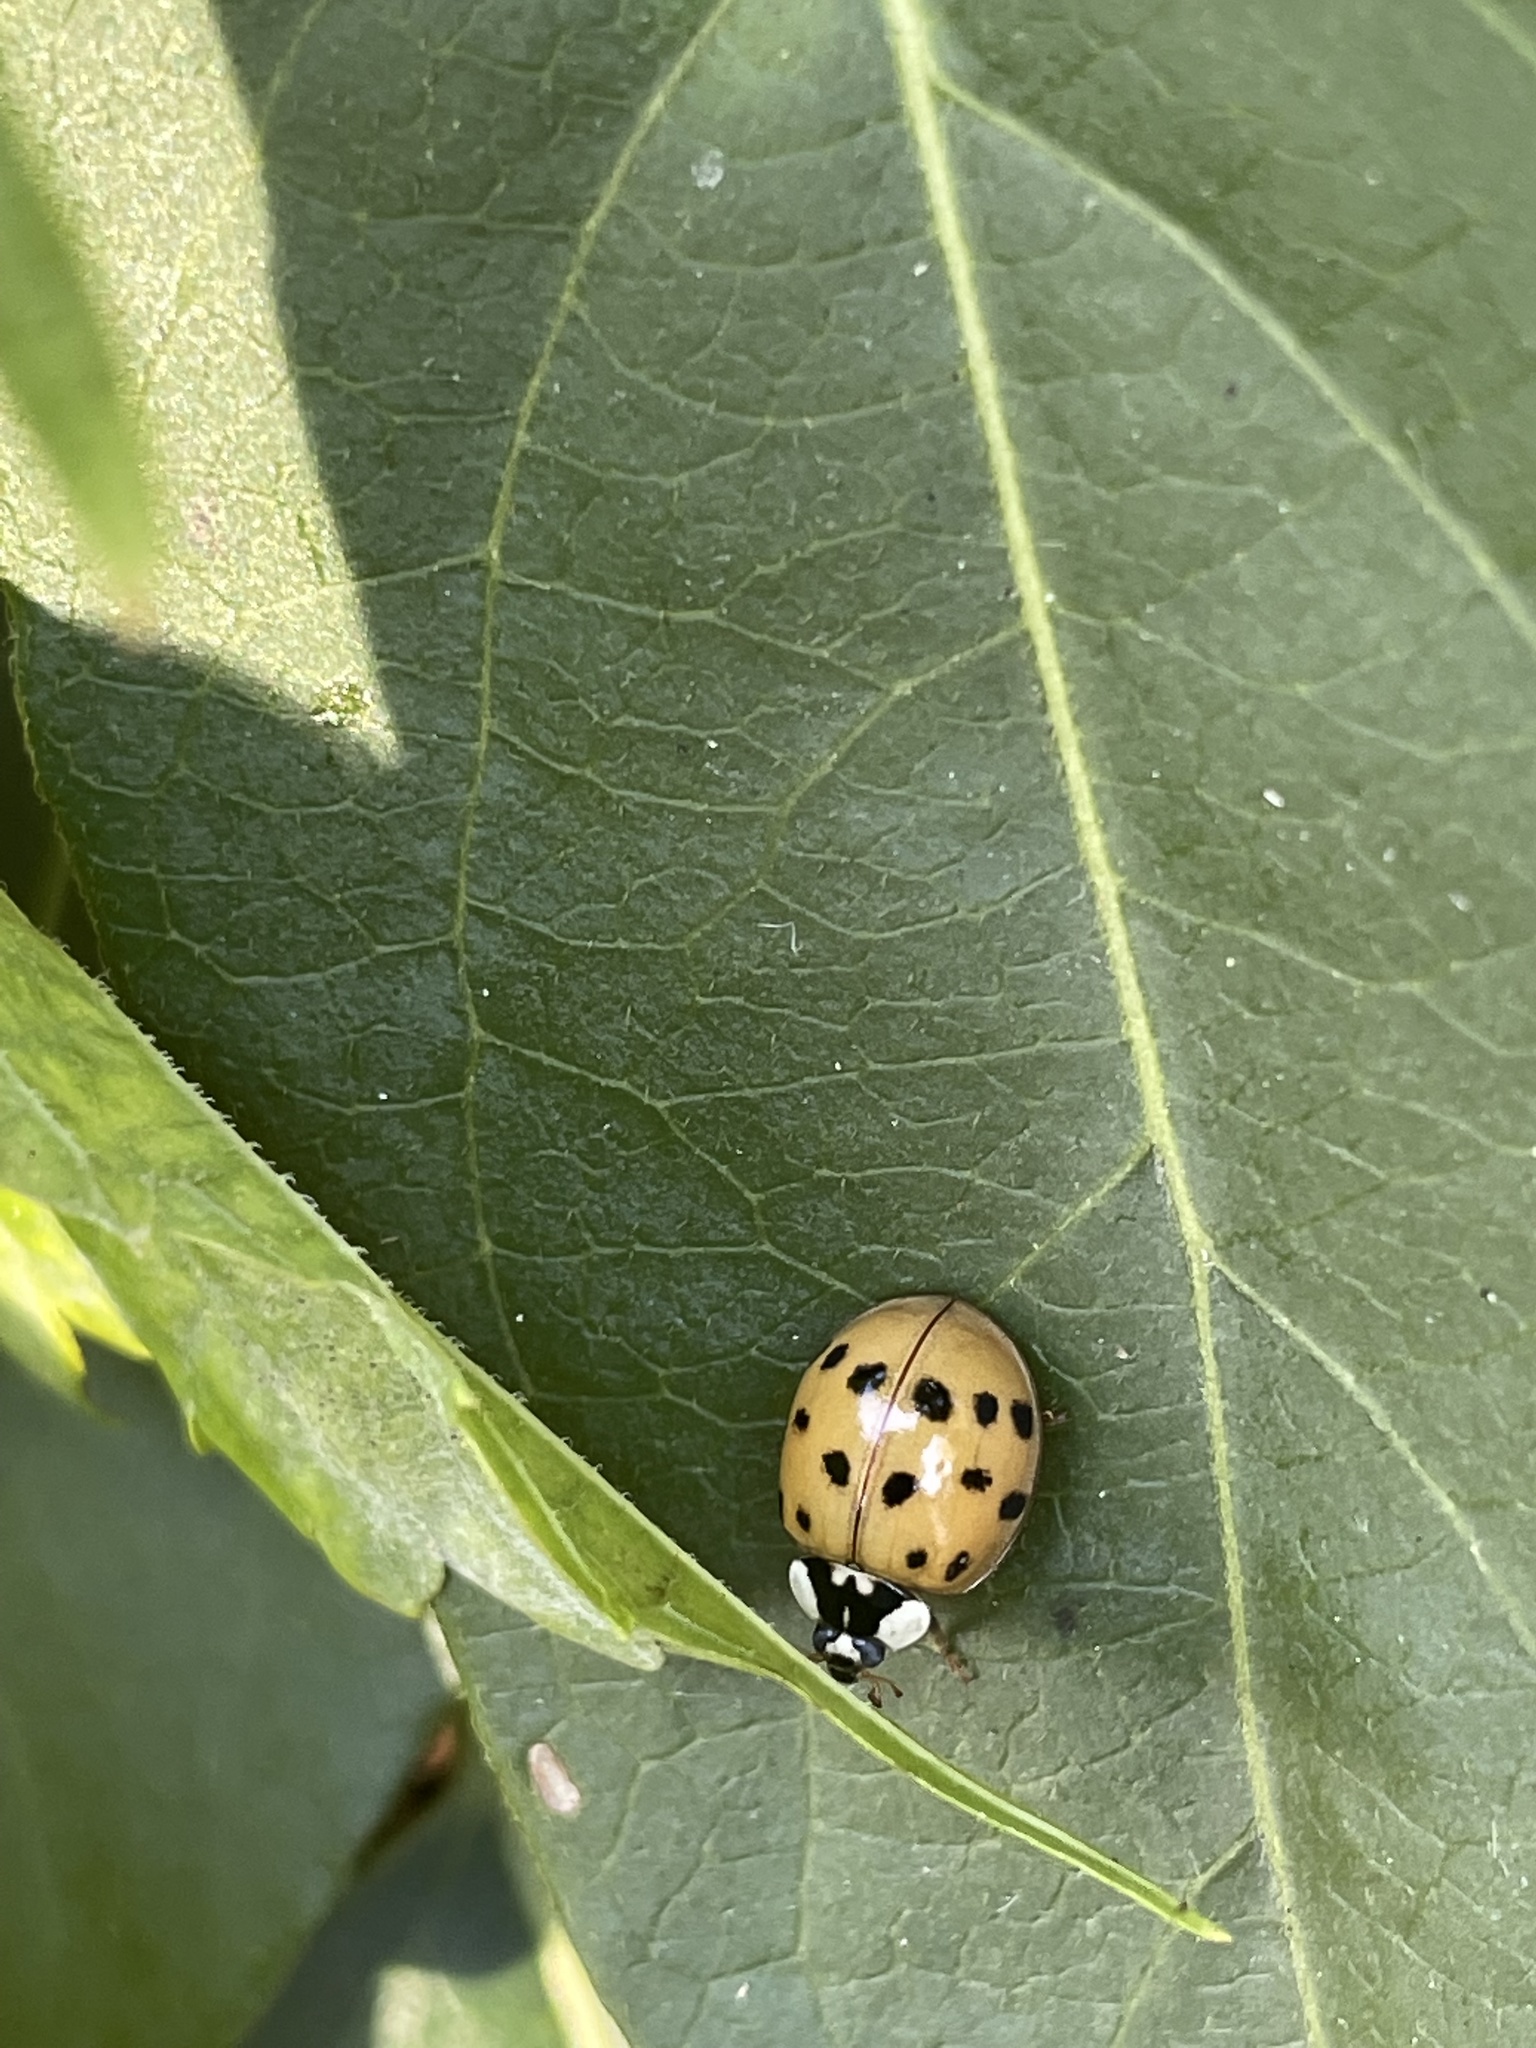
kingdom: Animalia
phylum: Arthropoda
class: Insecta
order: Coleoptera
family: Coccinellidae
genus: Harmonia
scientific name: Harmonia axyridis
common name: Harlequin ladybird
